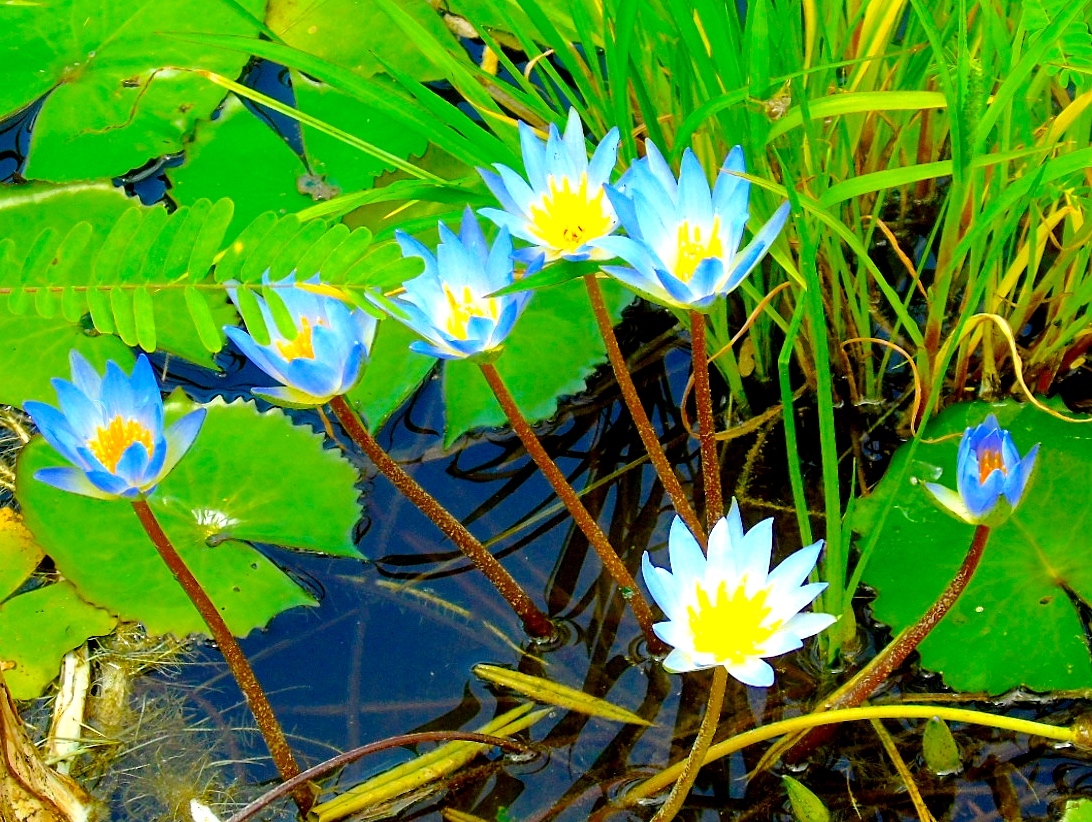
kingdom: Plantae
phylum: Tracheophyta
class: Magnoliopsida
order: Nymphaeales
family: Nymphaeaceae
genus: Nymphaea
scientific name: Nymphaea
